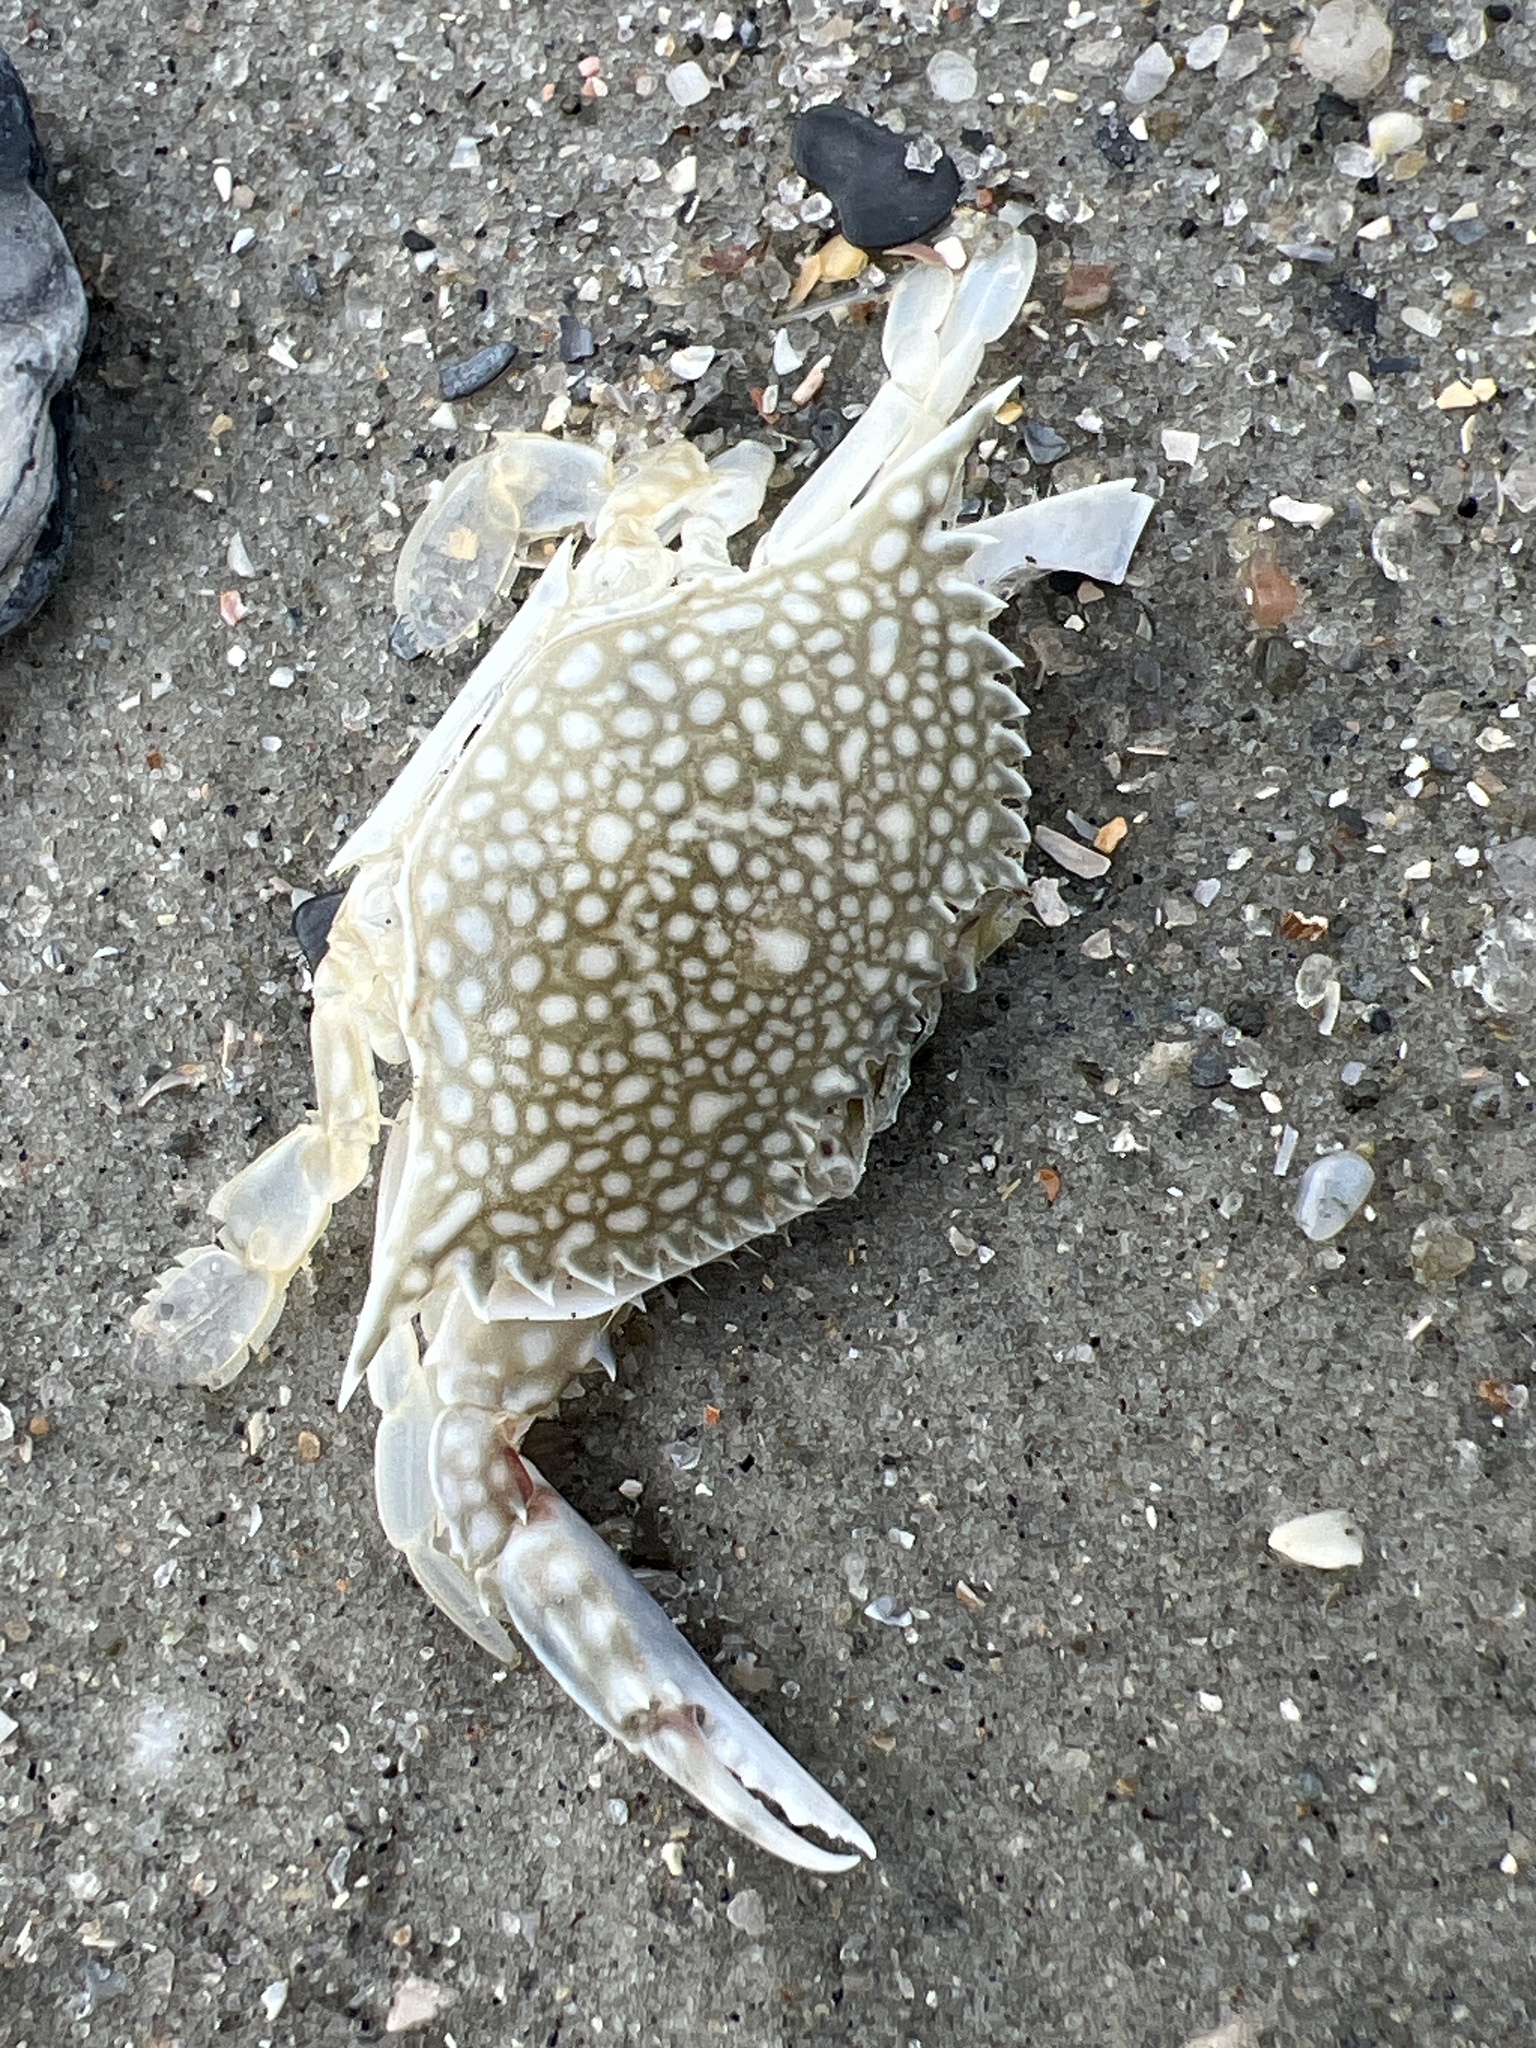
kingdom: Animalia
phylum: Arthropoda
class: Malacostraca
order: Decapoda
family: Portunidae
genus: Arenaeus
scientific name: Arenaeus cribrarius
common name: Speckled crab
